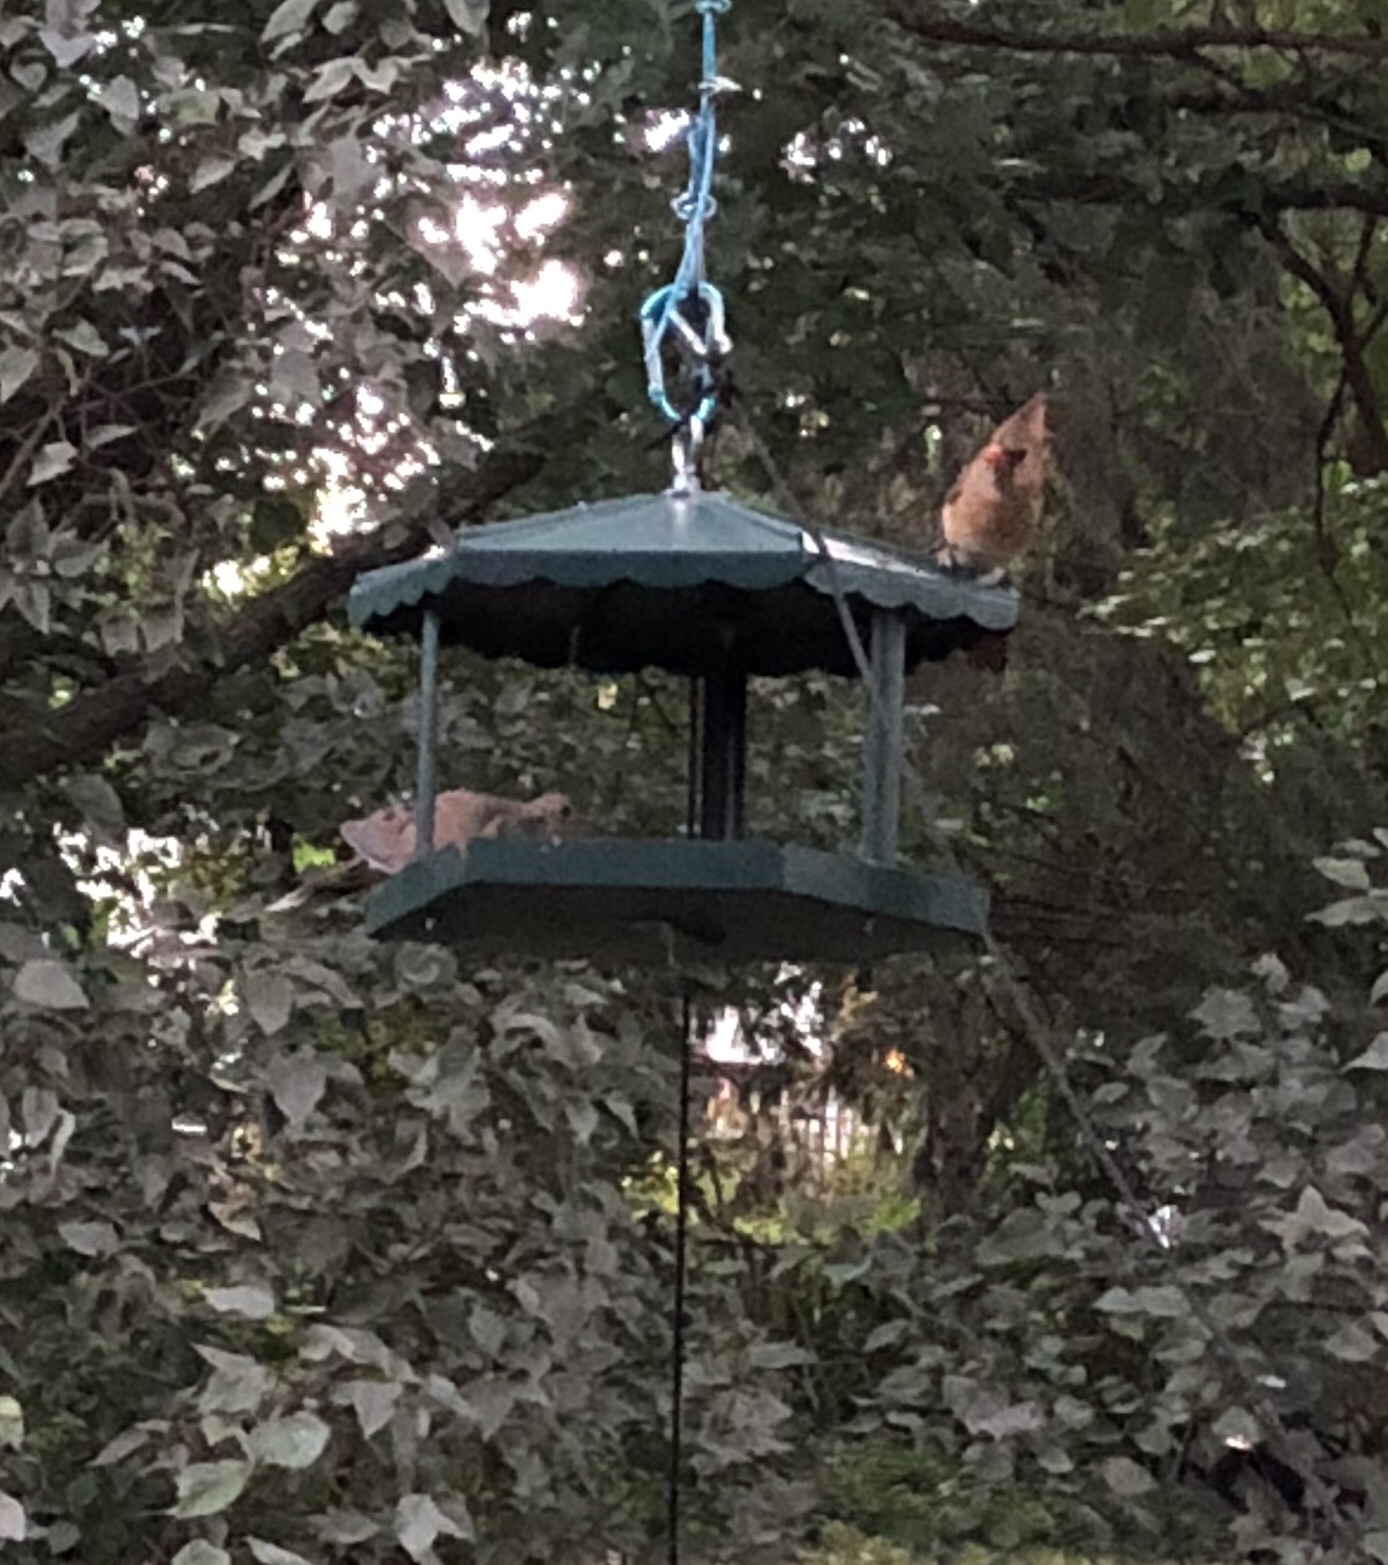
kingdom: Animalia
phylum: Chordata
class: Aves
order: Passeriformes
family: Cardinalidae
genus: Cardinalis
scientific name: Cardinalis cardinalis
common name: Northern cardinal
